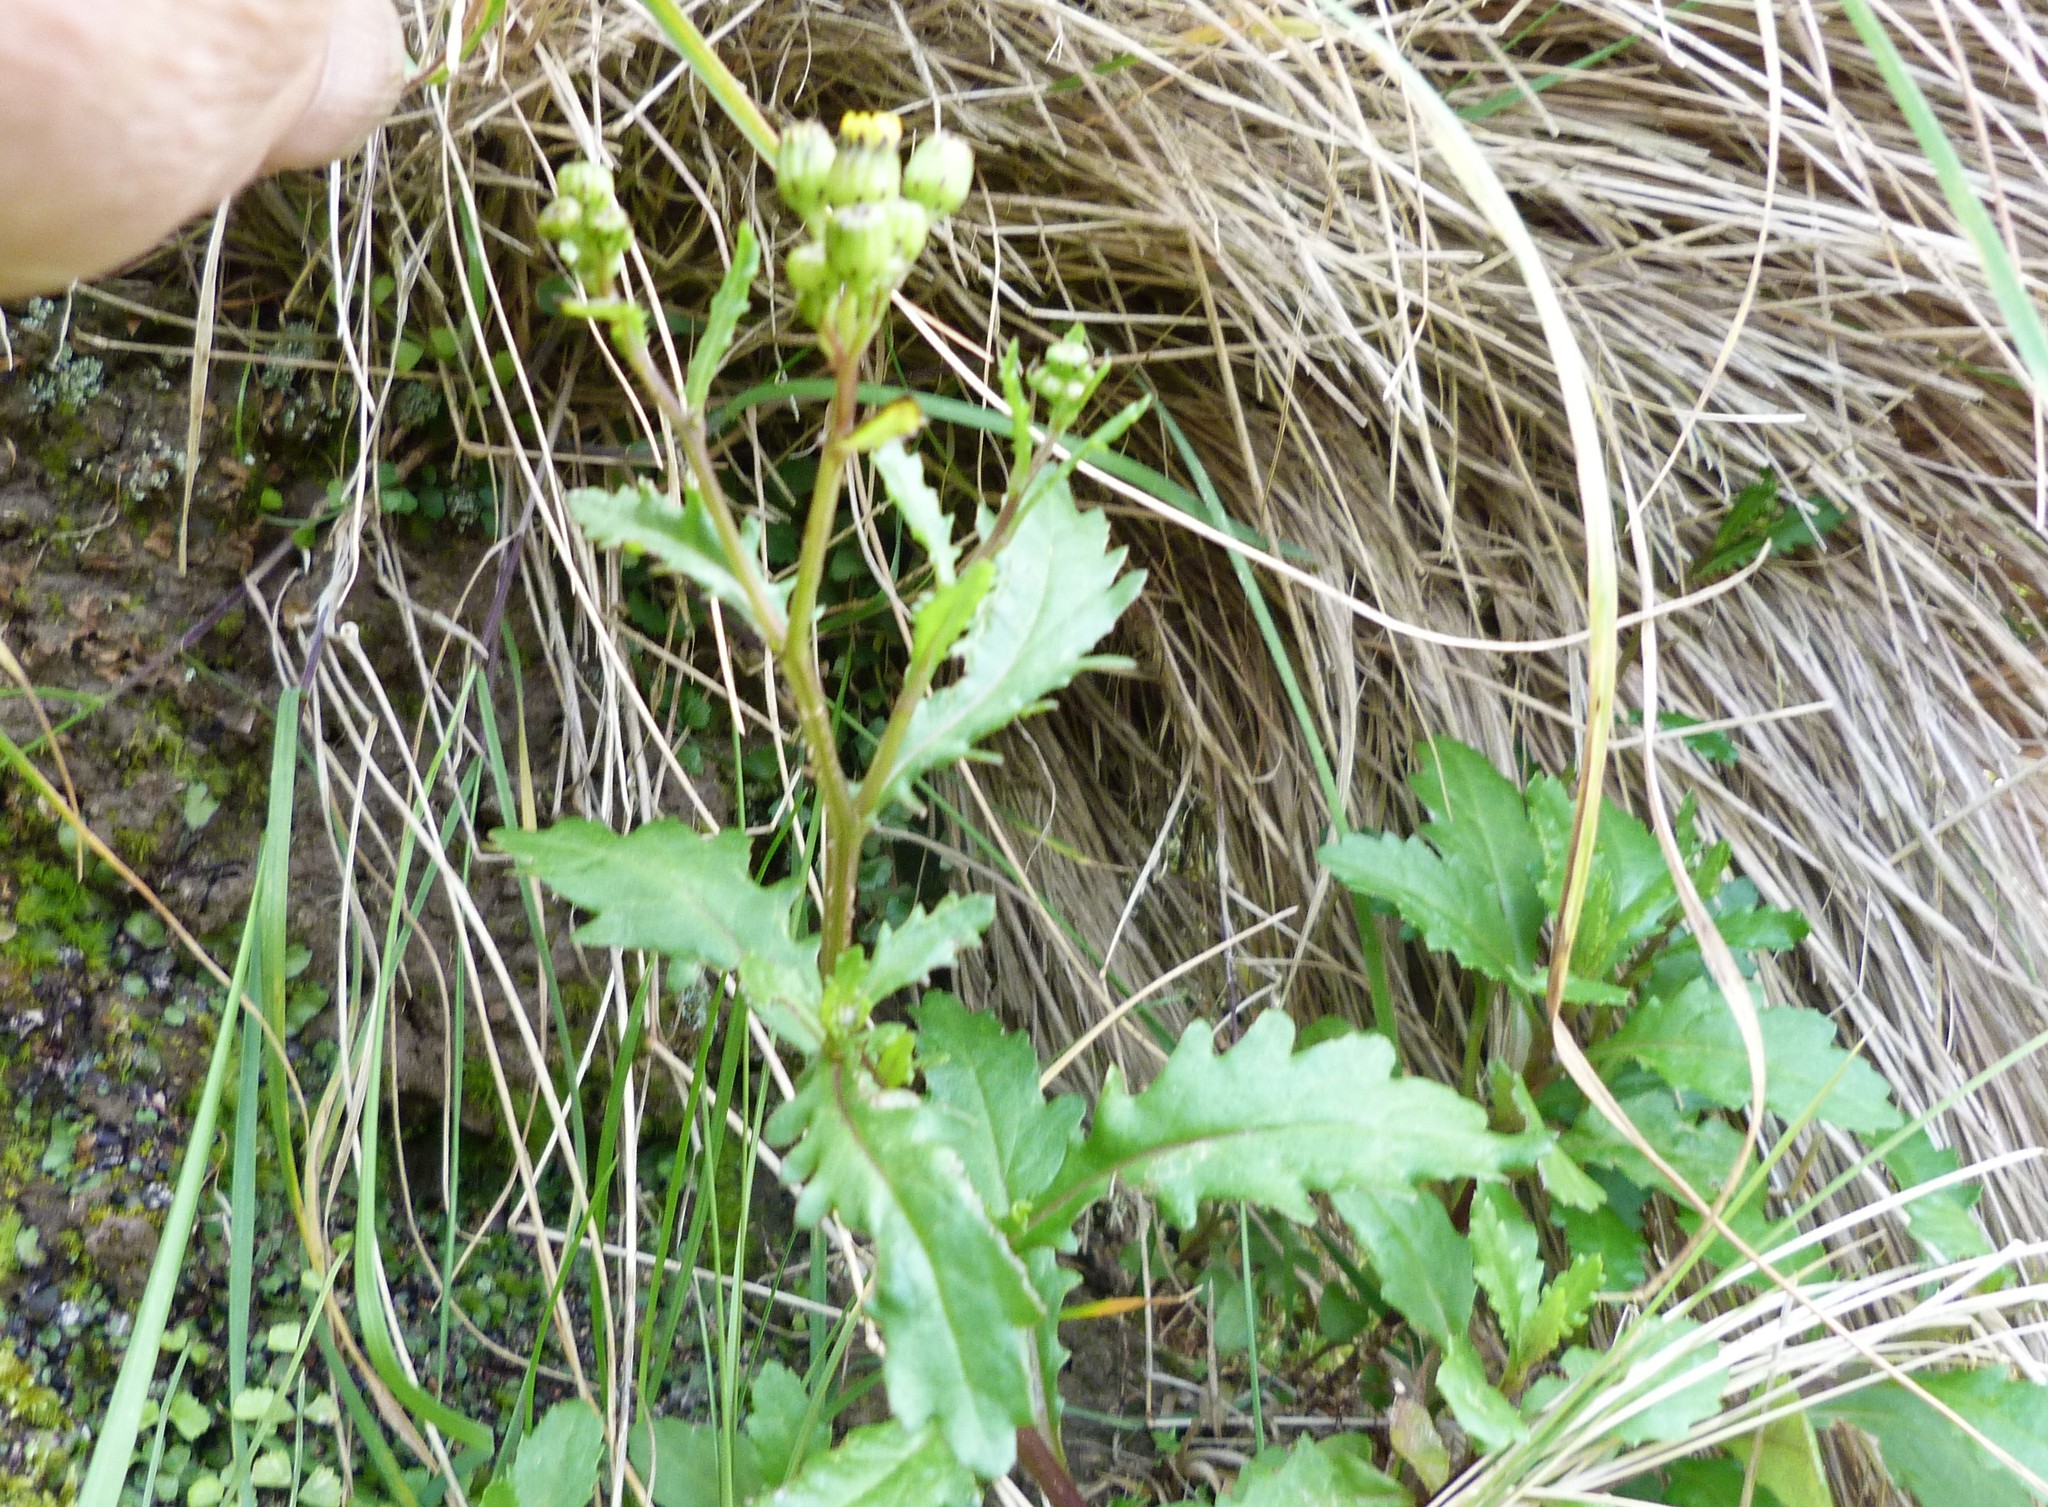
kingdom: Plantae
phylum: Tracheophyta
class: Magnoliopsida
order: Asterales
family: Asteraceae
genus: Senecio
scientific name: Senecio lautus
